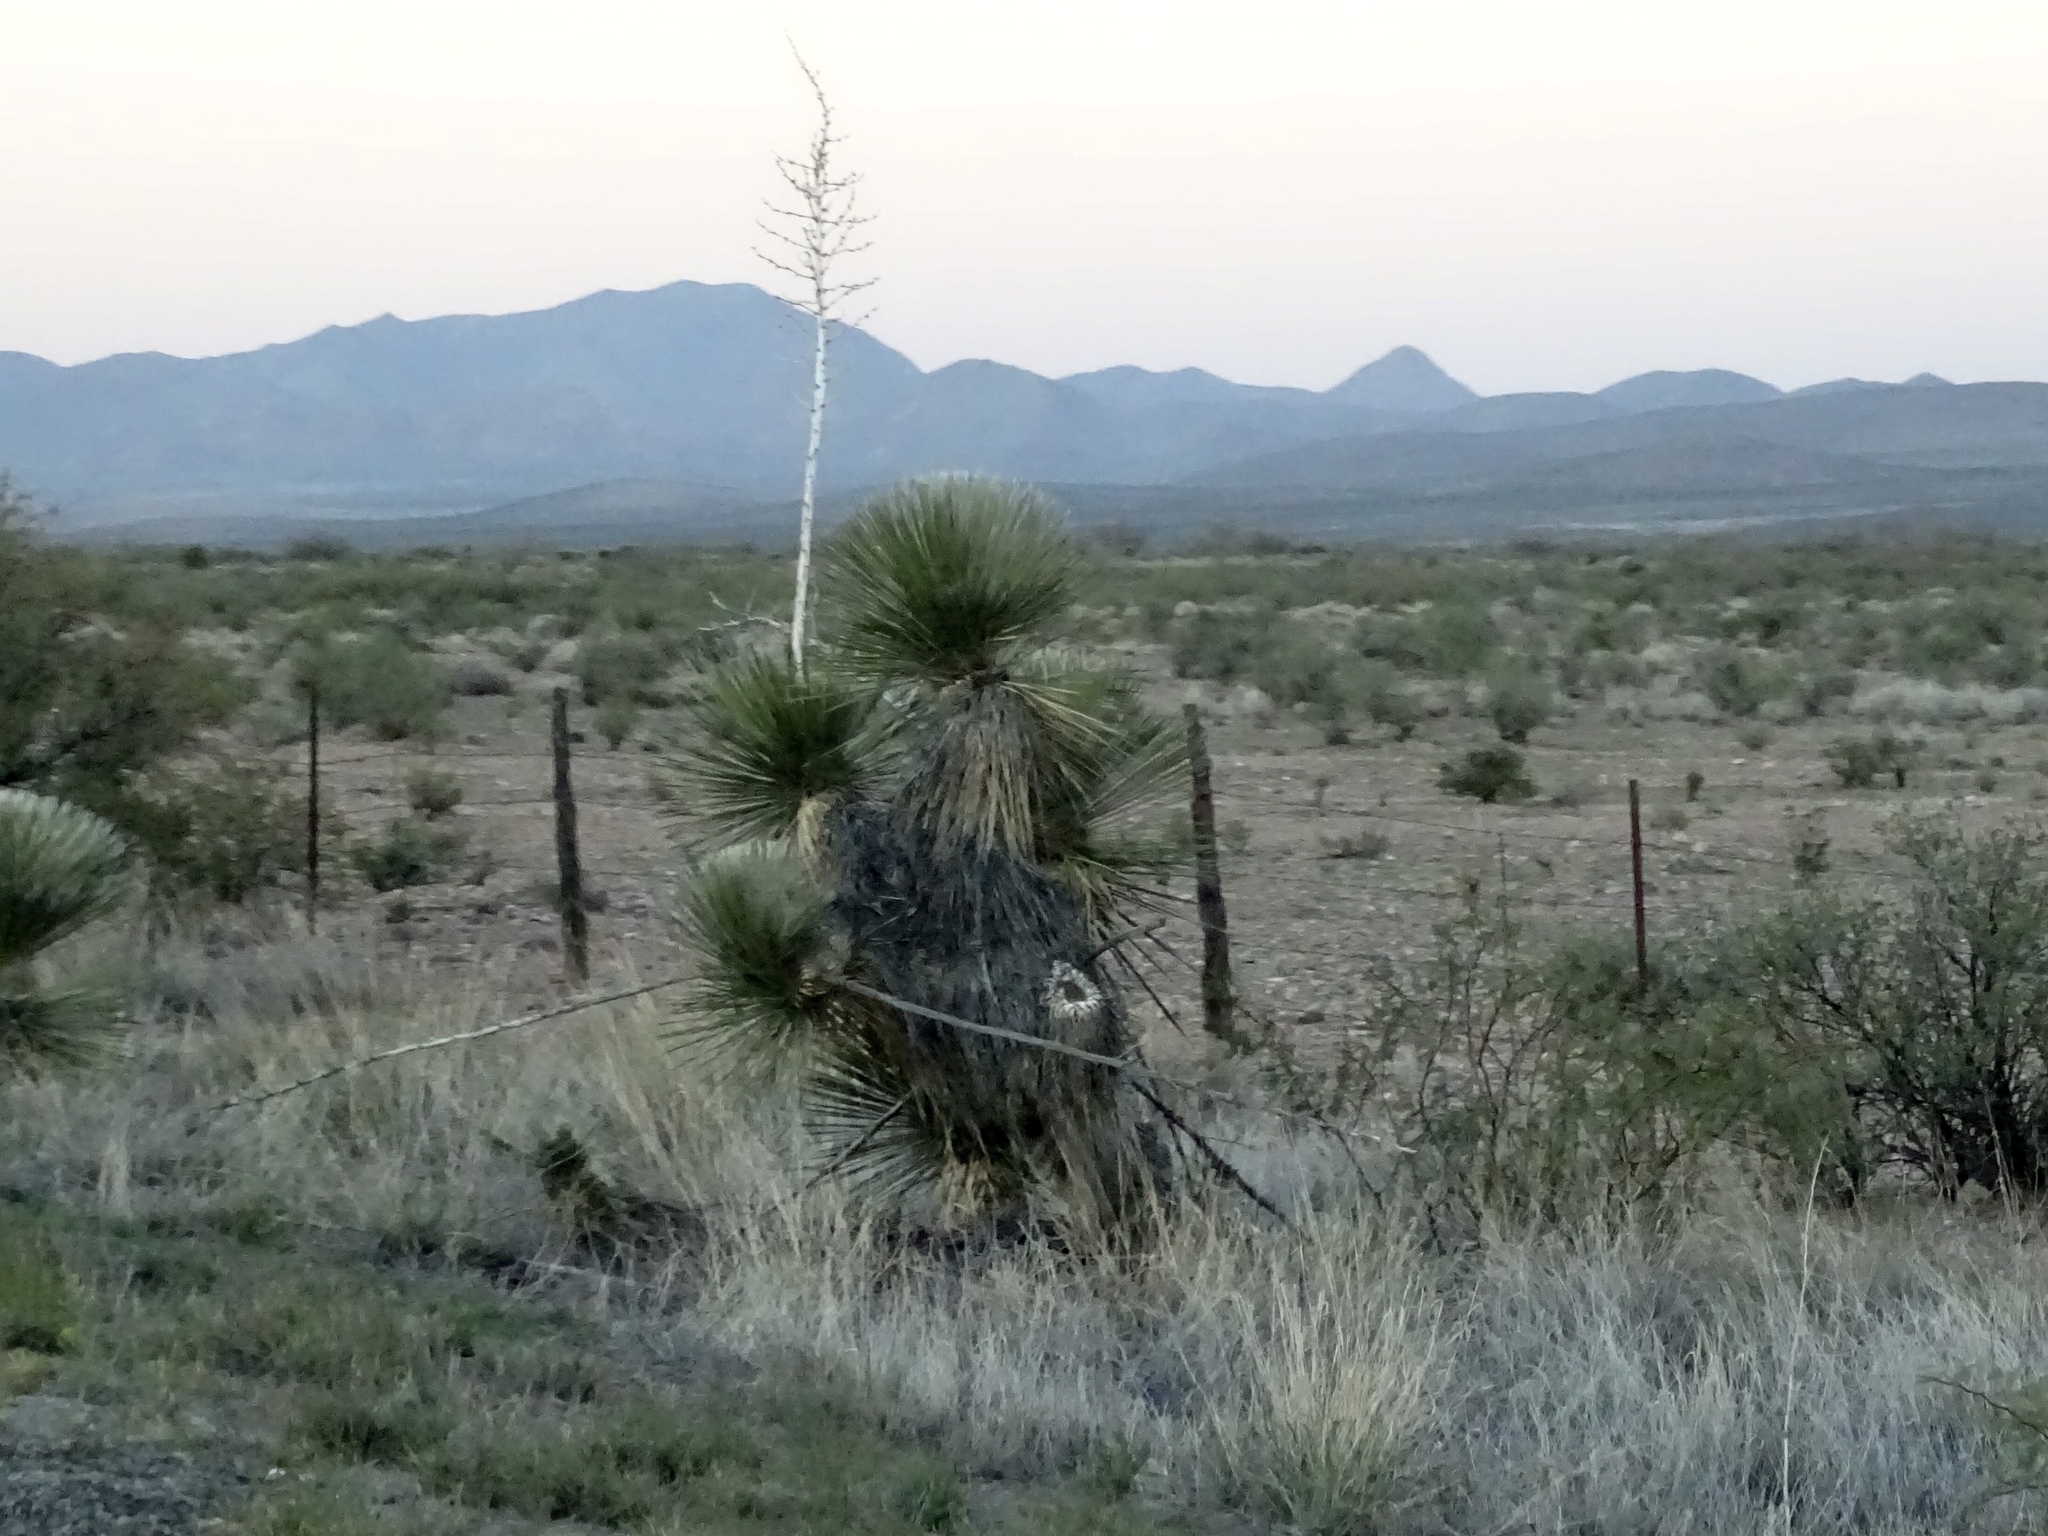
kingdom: Plantae
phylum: Tracheophyta
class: Liliopsida
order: Asparagales
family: Asparagaceae
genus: Yucca
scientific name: Yucca elata
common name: Palmella
